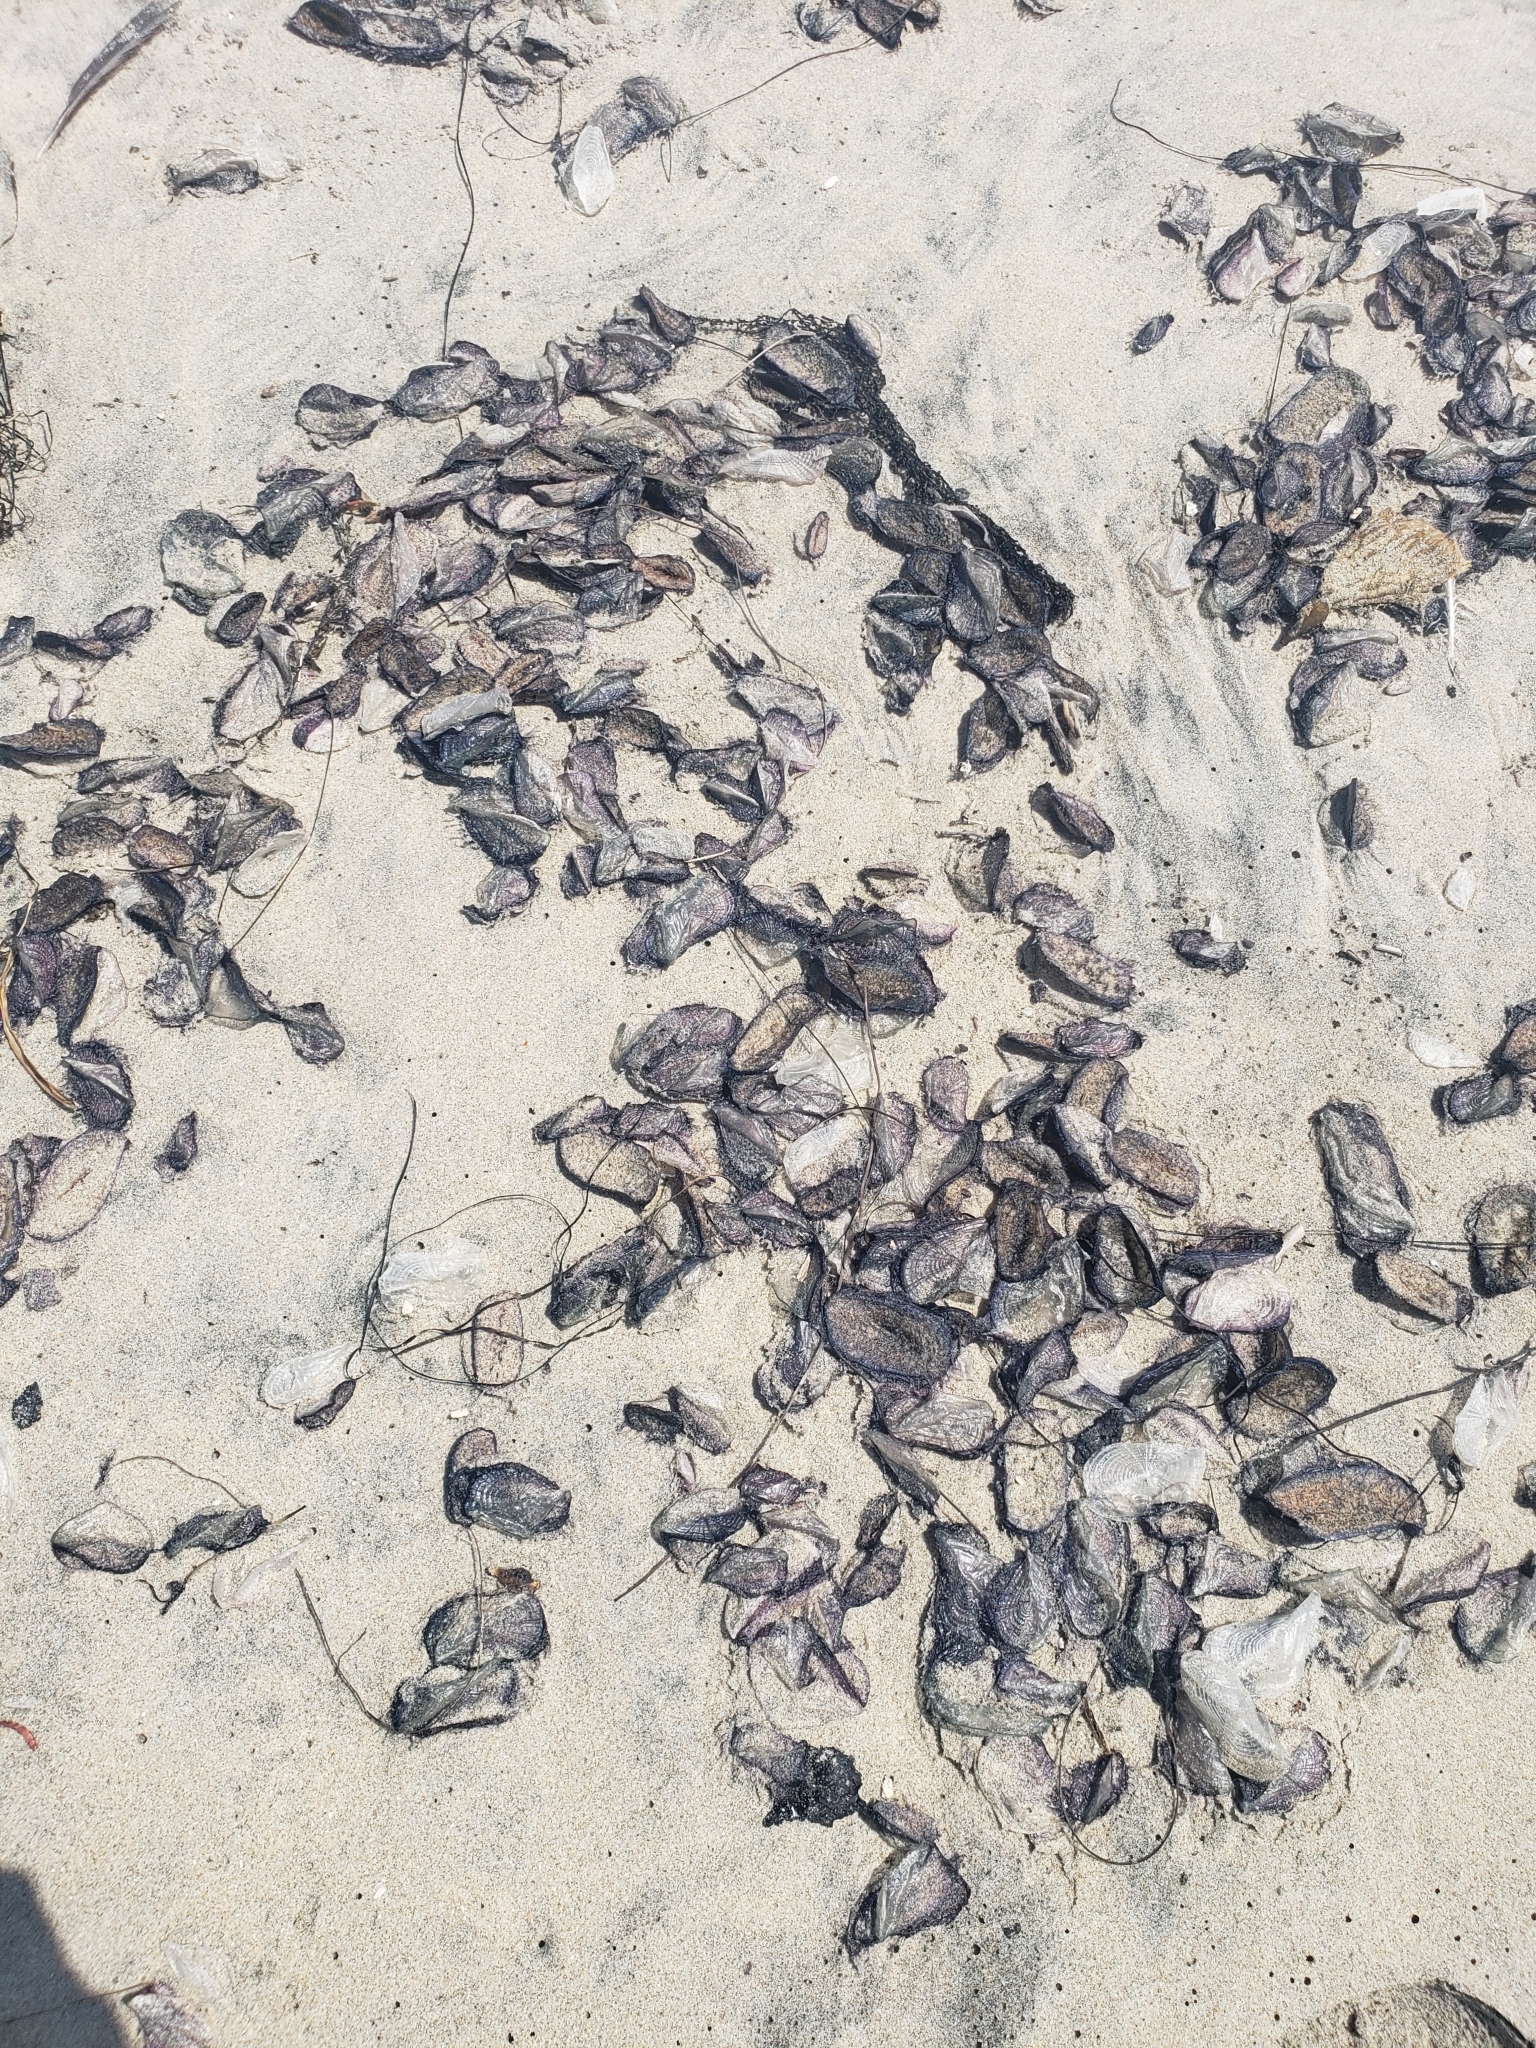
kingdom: Animalia
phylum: Cnidaria
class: Hydrozoa
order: Anthoathecata
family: Porpitidae
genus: Velella
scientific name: Velella velella
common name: By-the-wind-sailor
